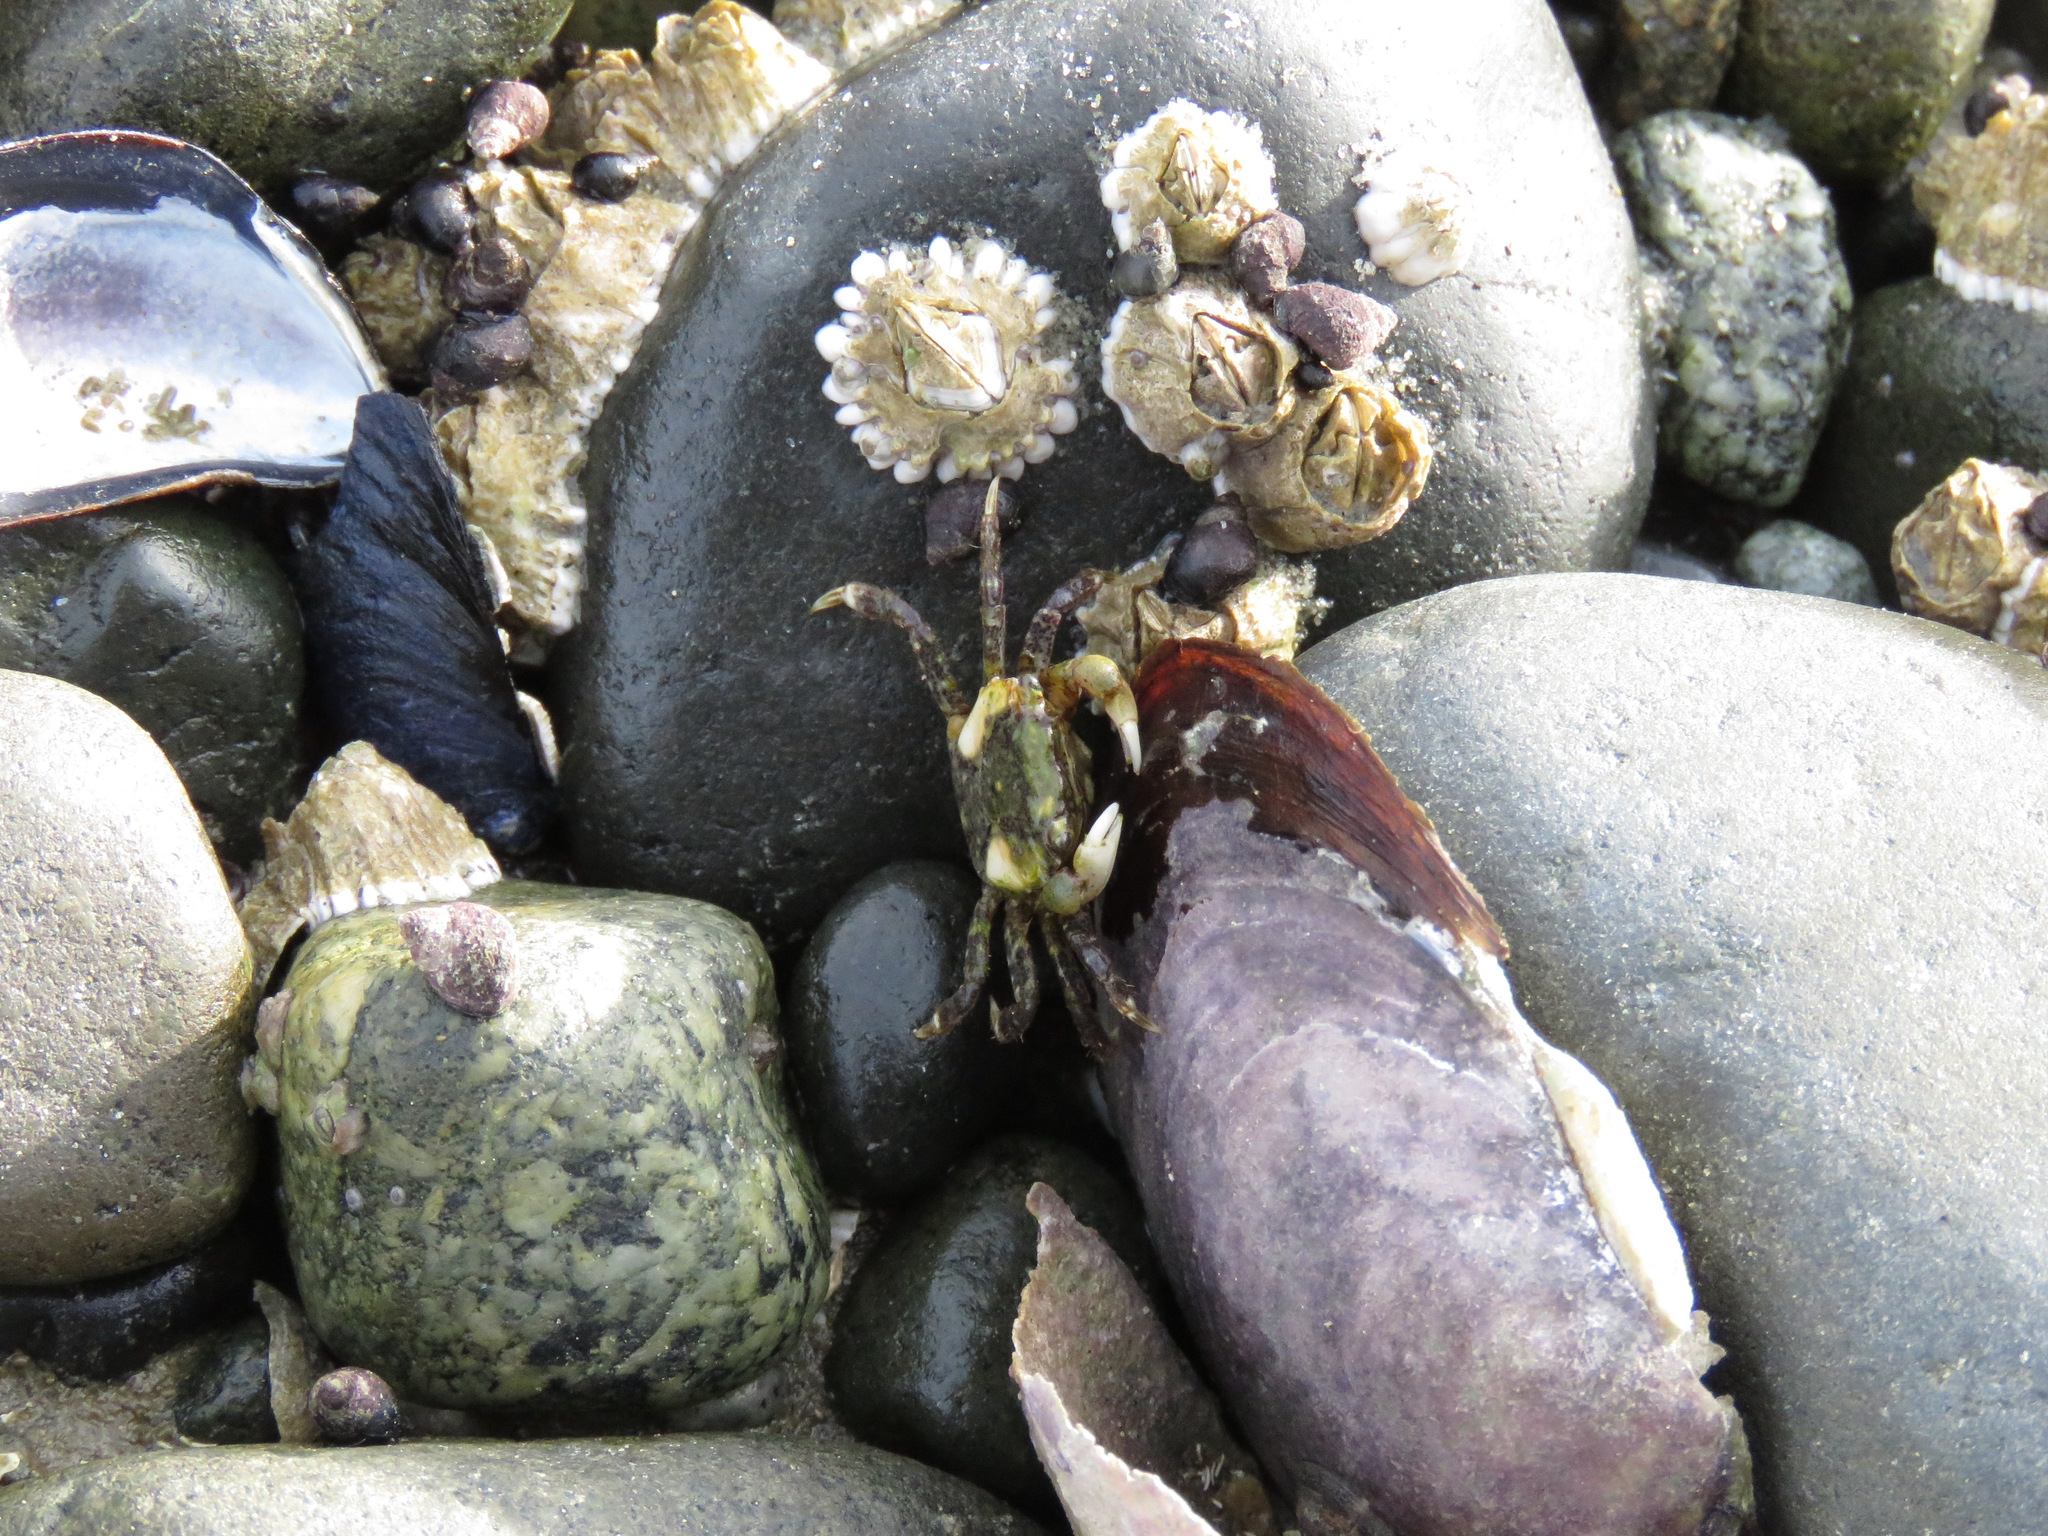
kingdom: Animalia
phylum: Arthropoda
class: Malacostraca
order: Decapoda
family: Varunidae
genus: Hemigrapsus
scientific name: Hemigrapsus oregonensis
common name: Yellow shore crab
